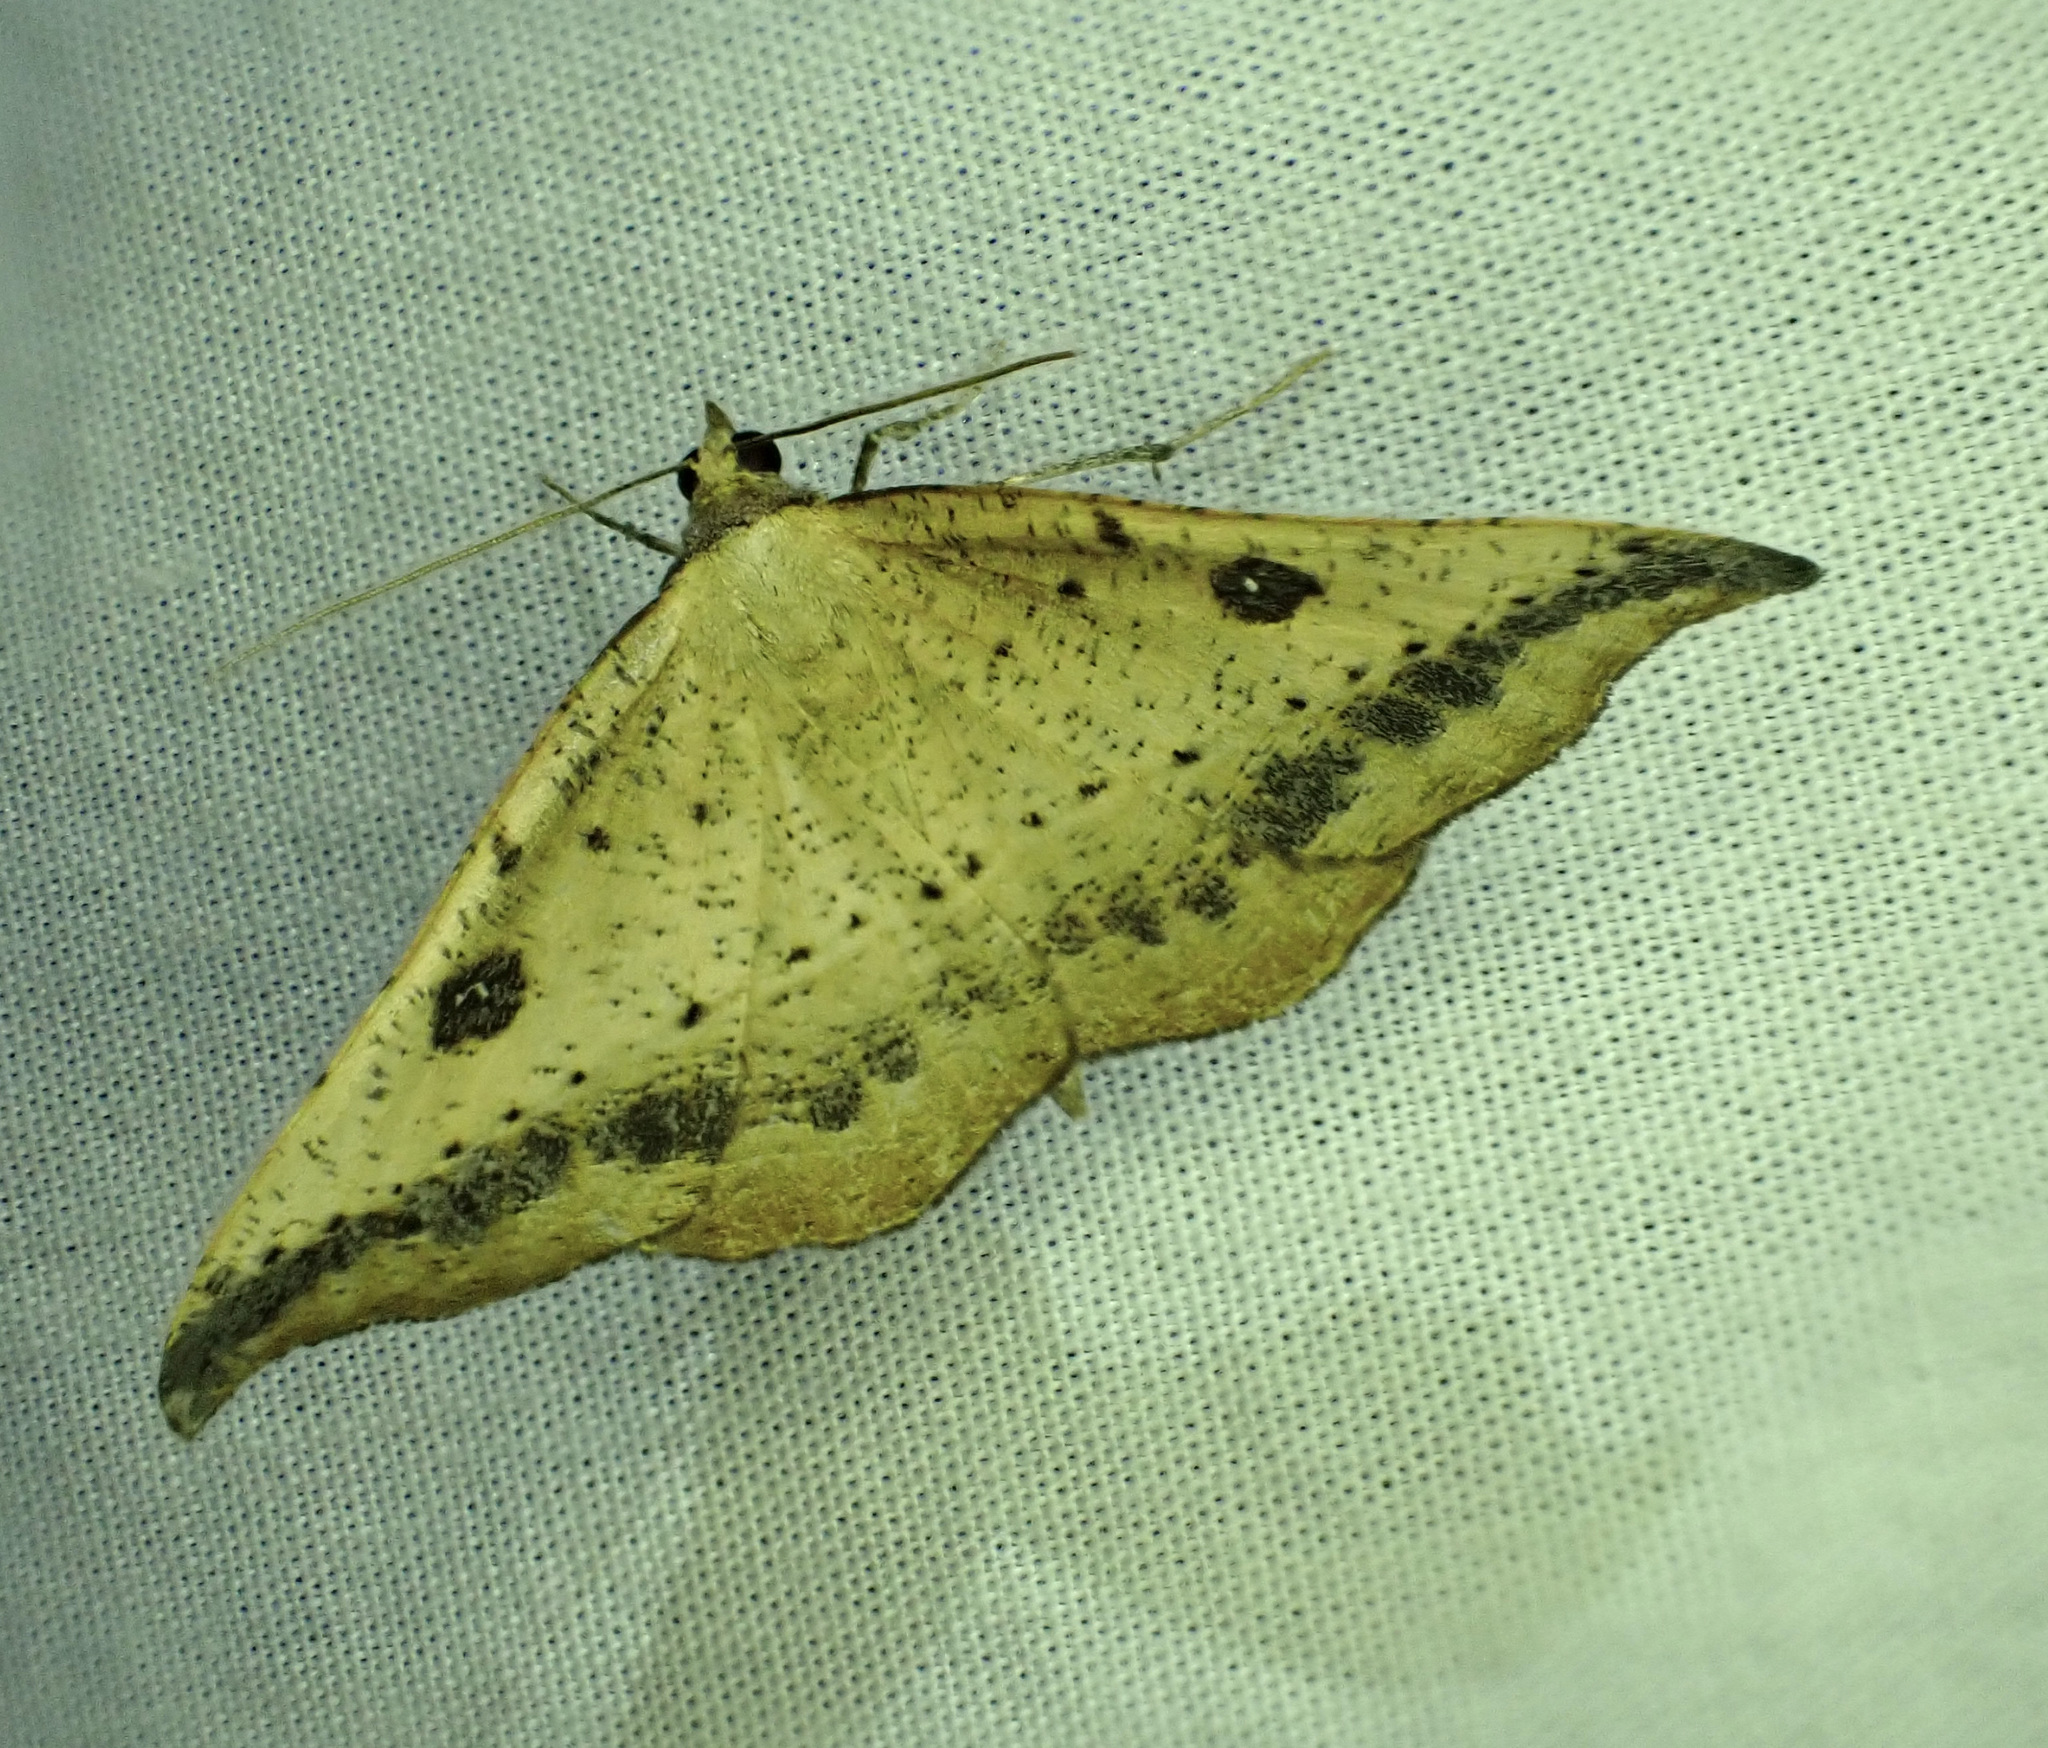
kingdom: Animalia
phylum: Arthropoda
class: Insecta
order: Lepidoptera
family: Geometridae
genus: Sarisa
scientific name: Sarisa muriferata
